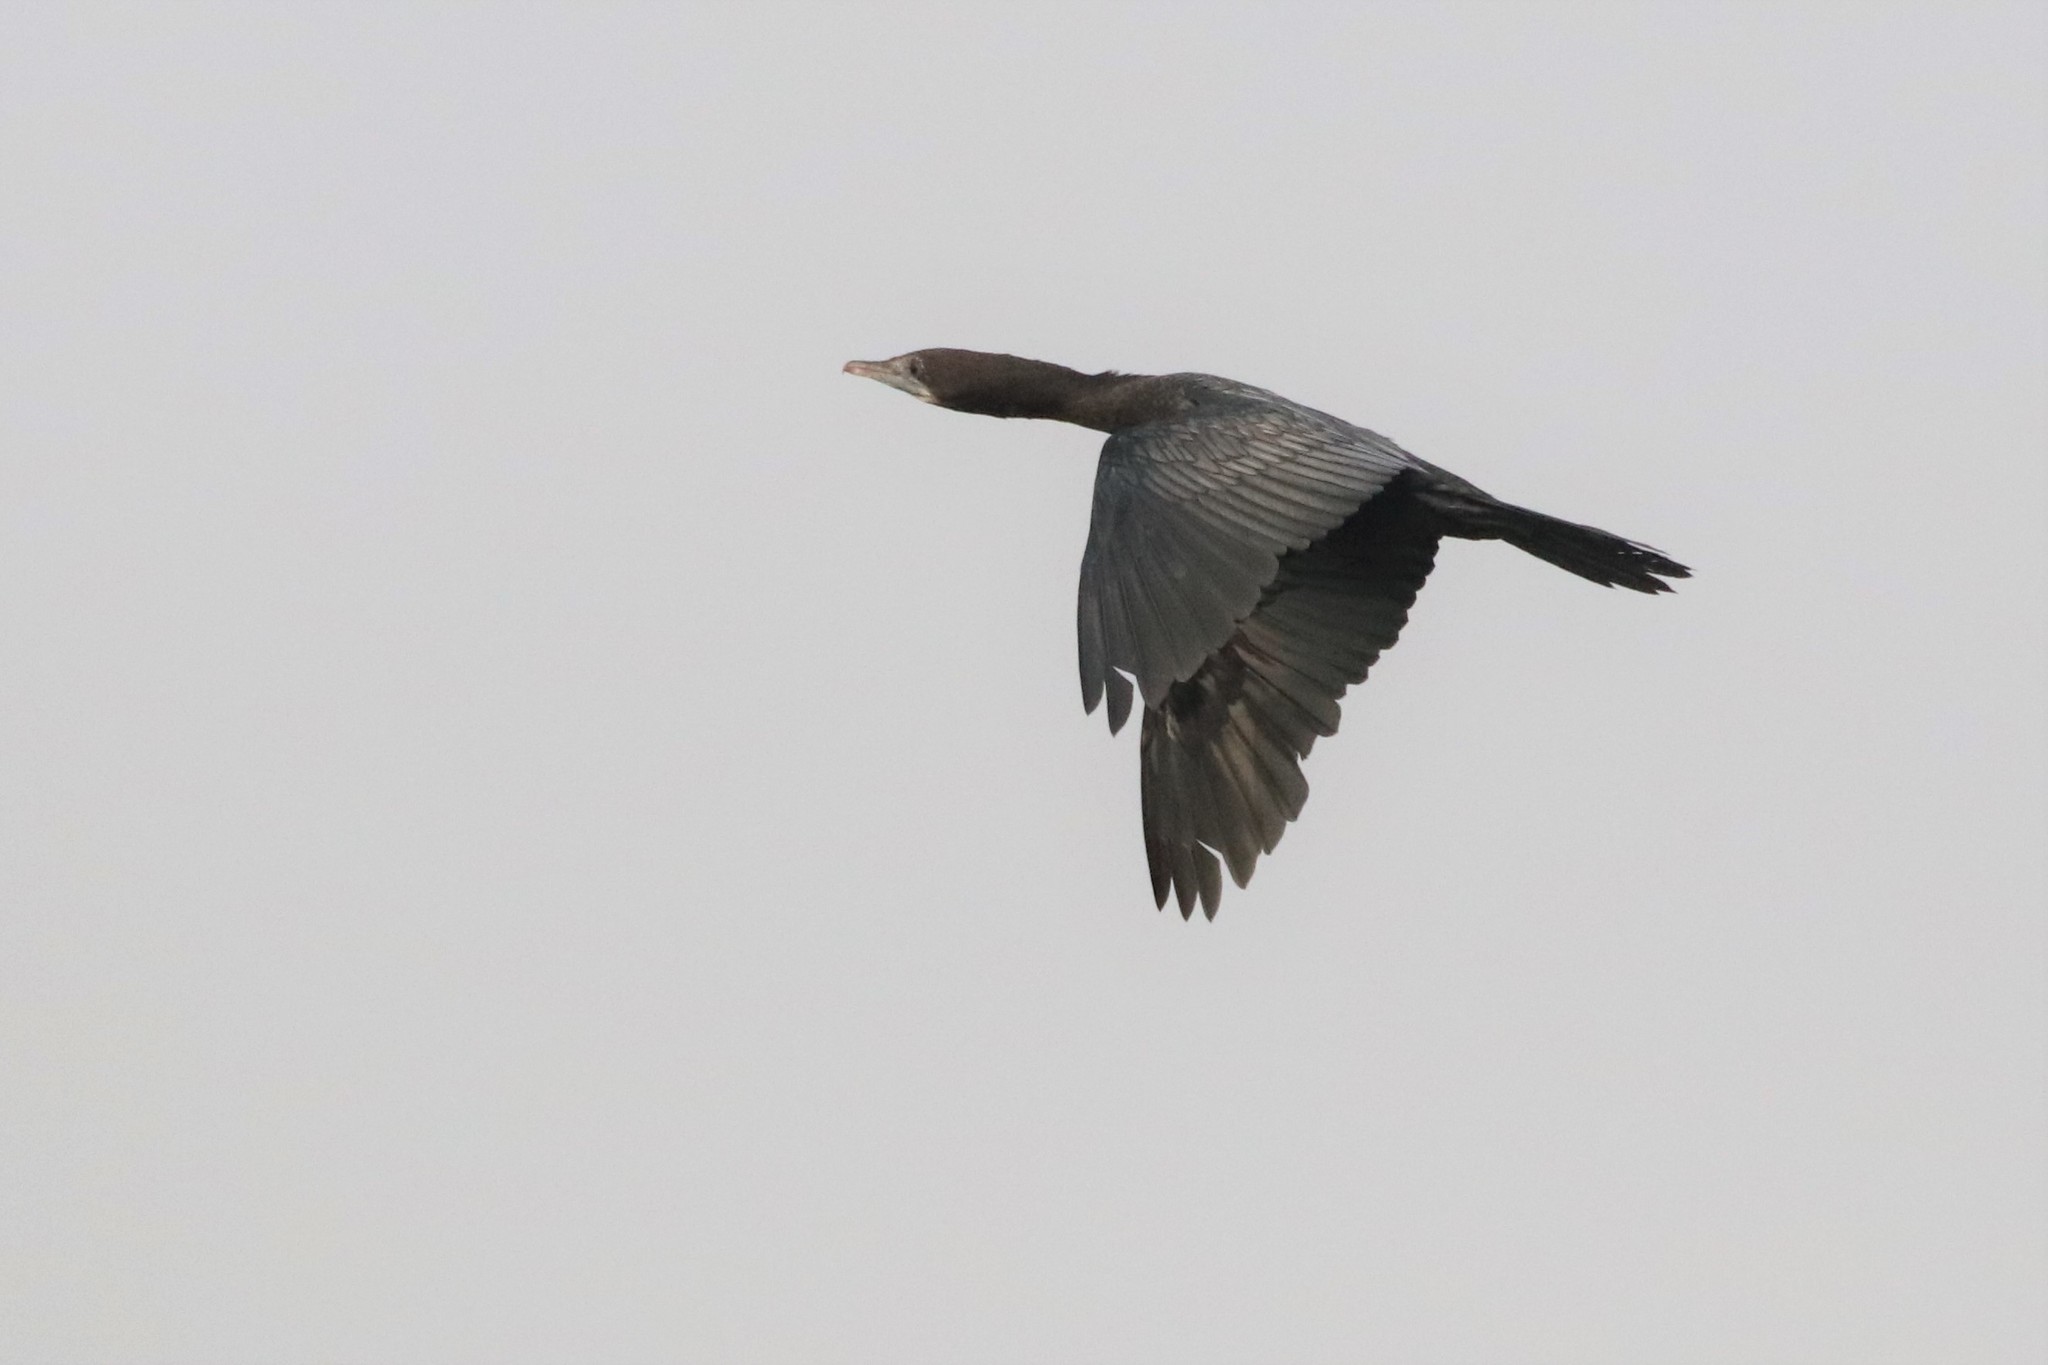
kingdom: Animalia
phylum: Chordata
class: Aves
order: Suliformes
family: Phalacrocoracidae
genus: Microcarbo
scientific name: Microcarbo niger
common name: Little cormorant
